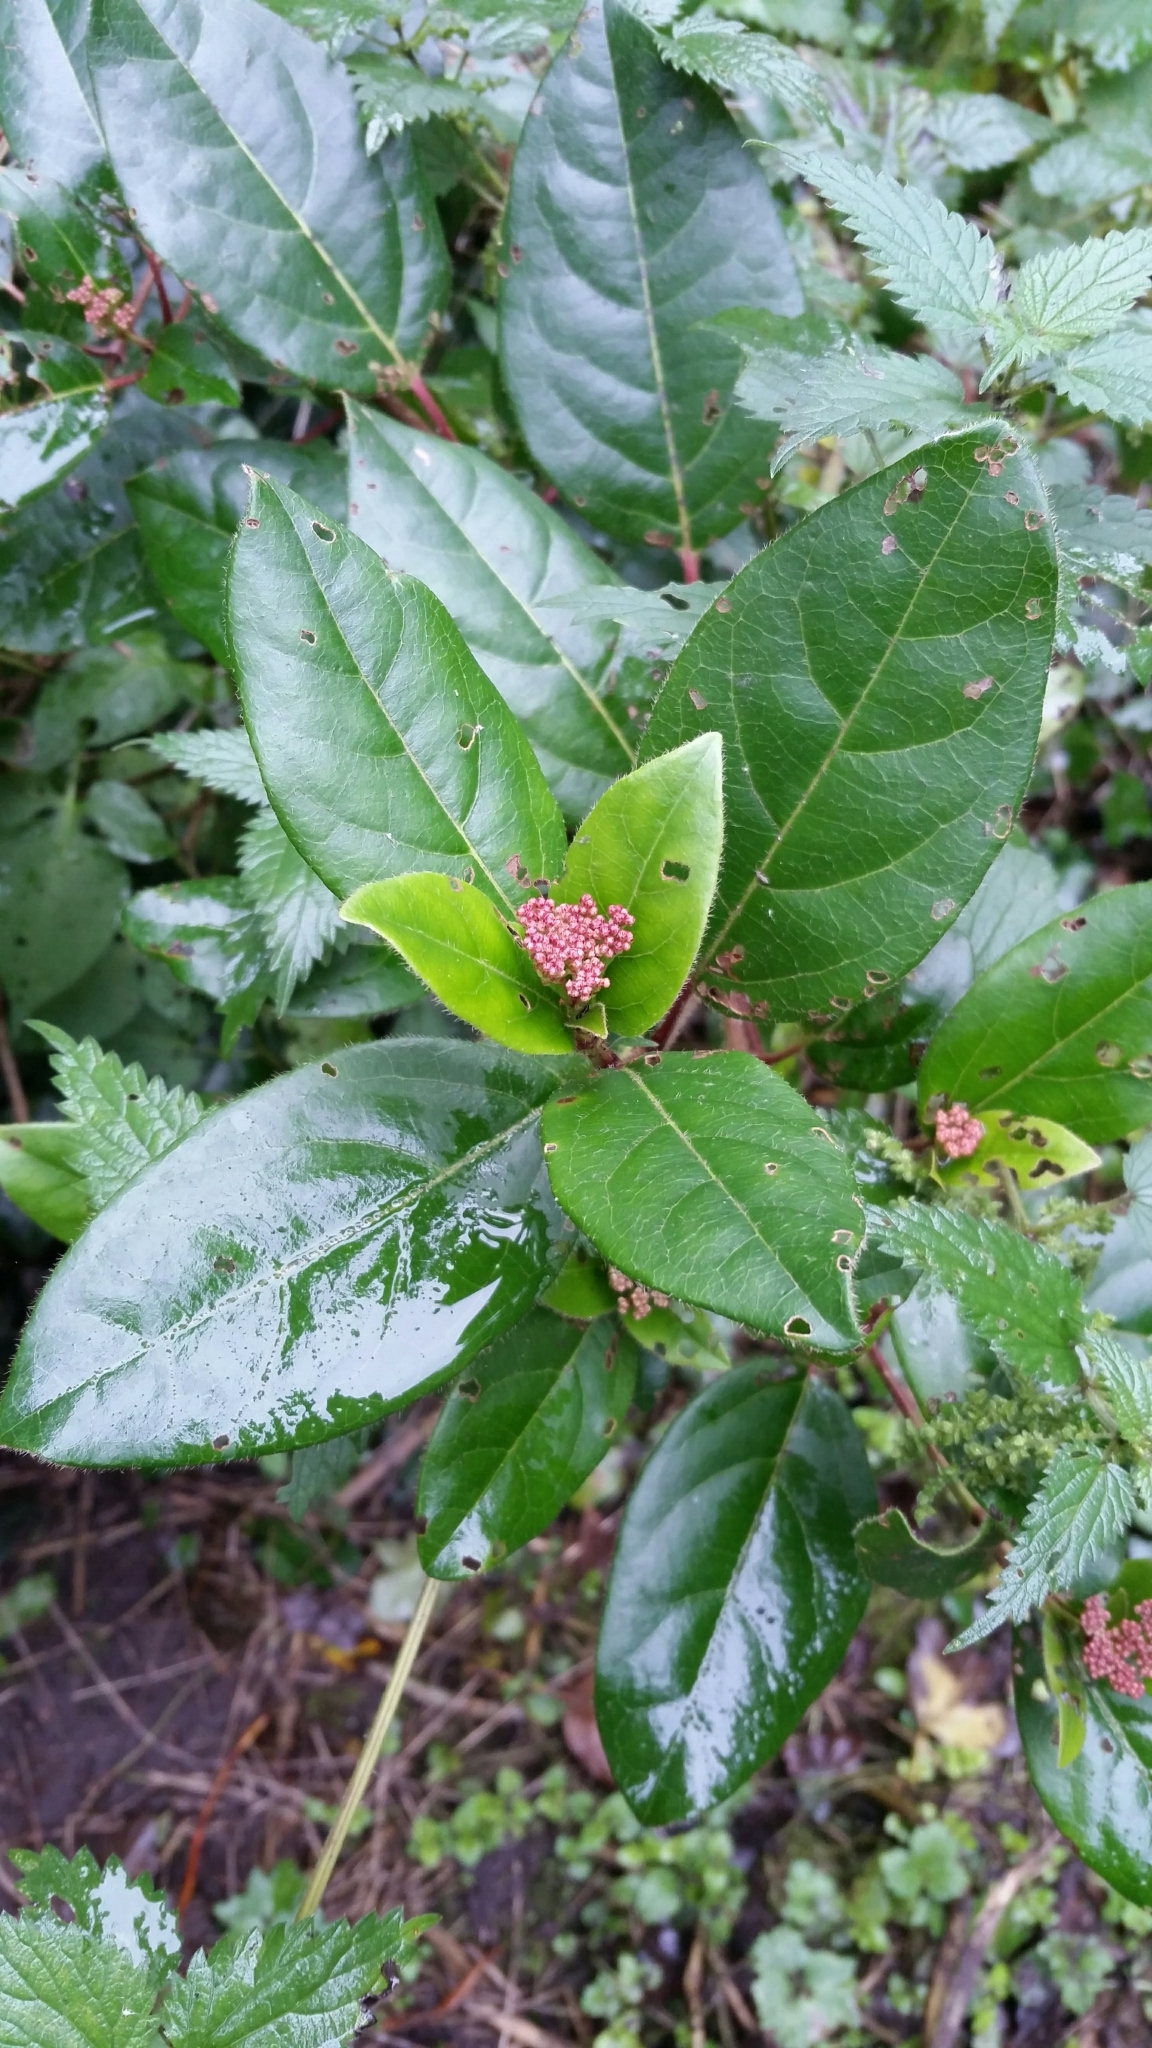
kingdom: Plantae
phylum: Tracheophyta
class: Magnoliopsida
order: Dipsacales
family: Viburnaceae
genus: Viburnum
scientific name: Viburnum tinus
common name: Laurustinus
